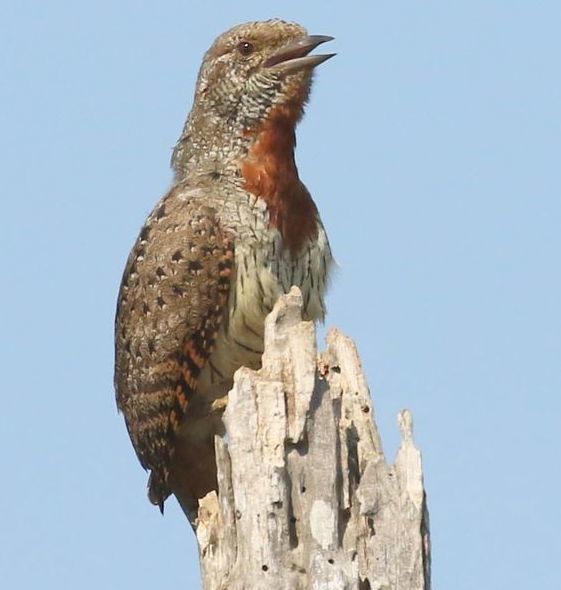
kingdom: Animalia
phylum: Chordata
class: Aves
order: Piciformes
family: Picidae
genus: Jynx
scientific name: Jynx ruficollis
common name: Red-throated wryneck
